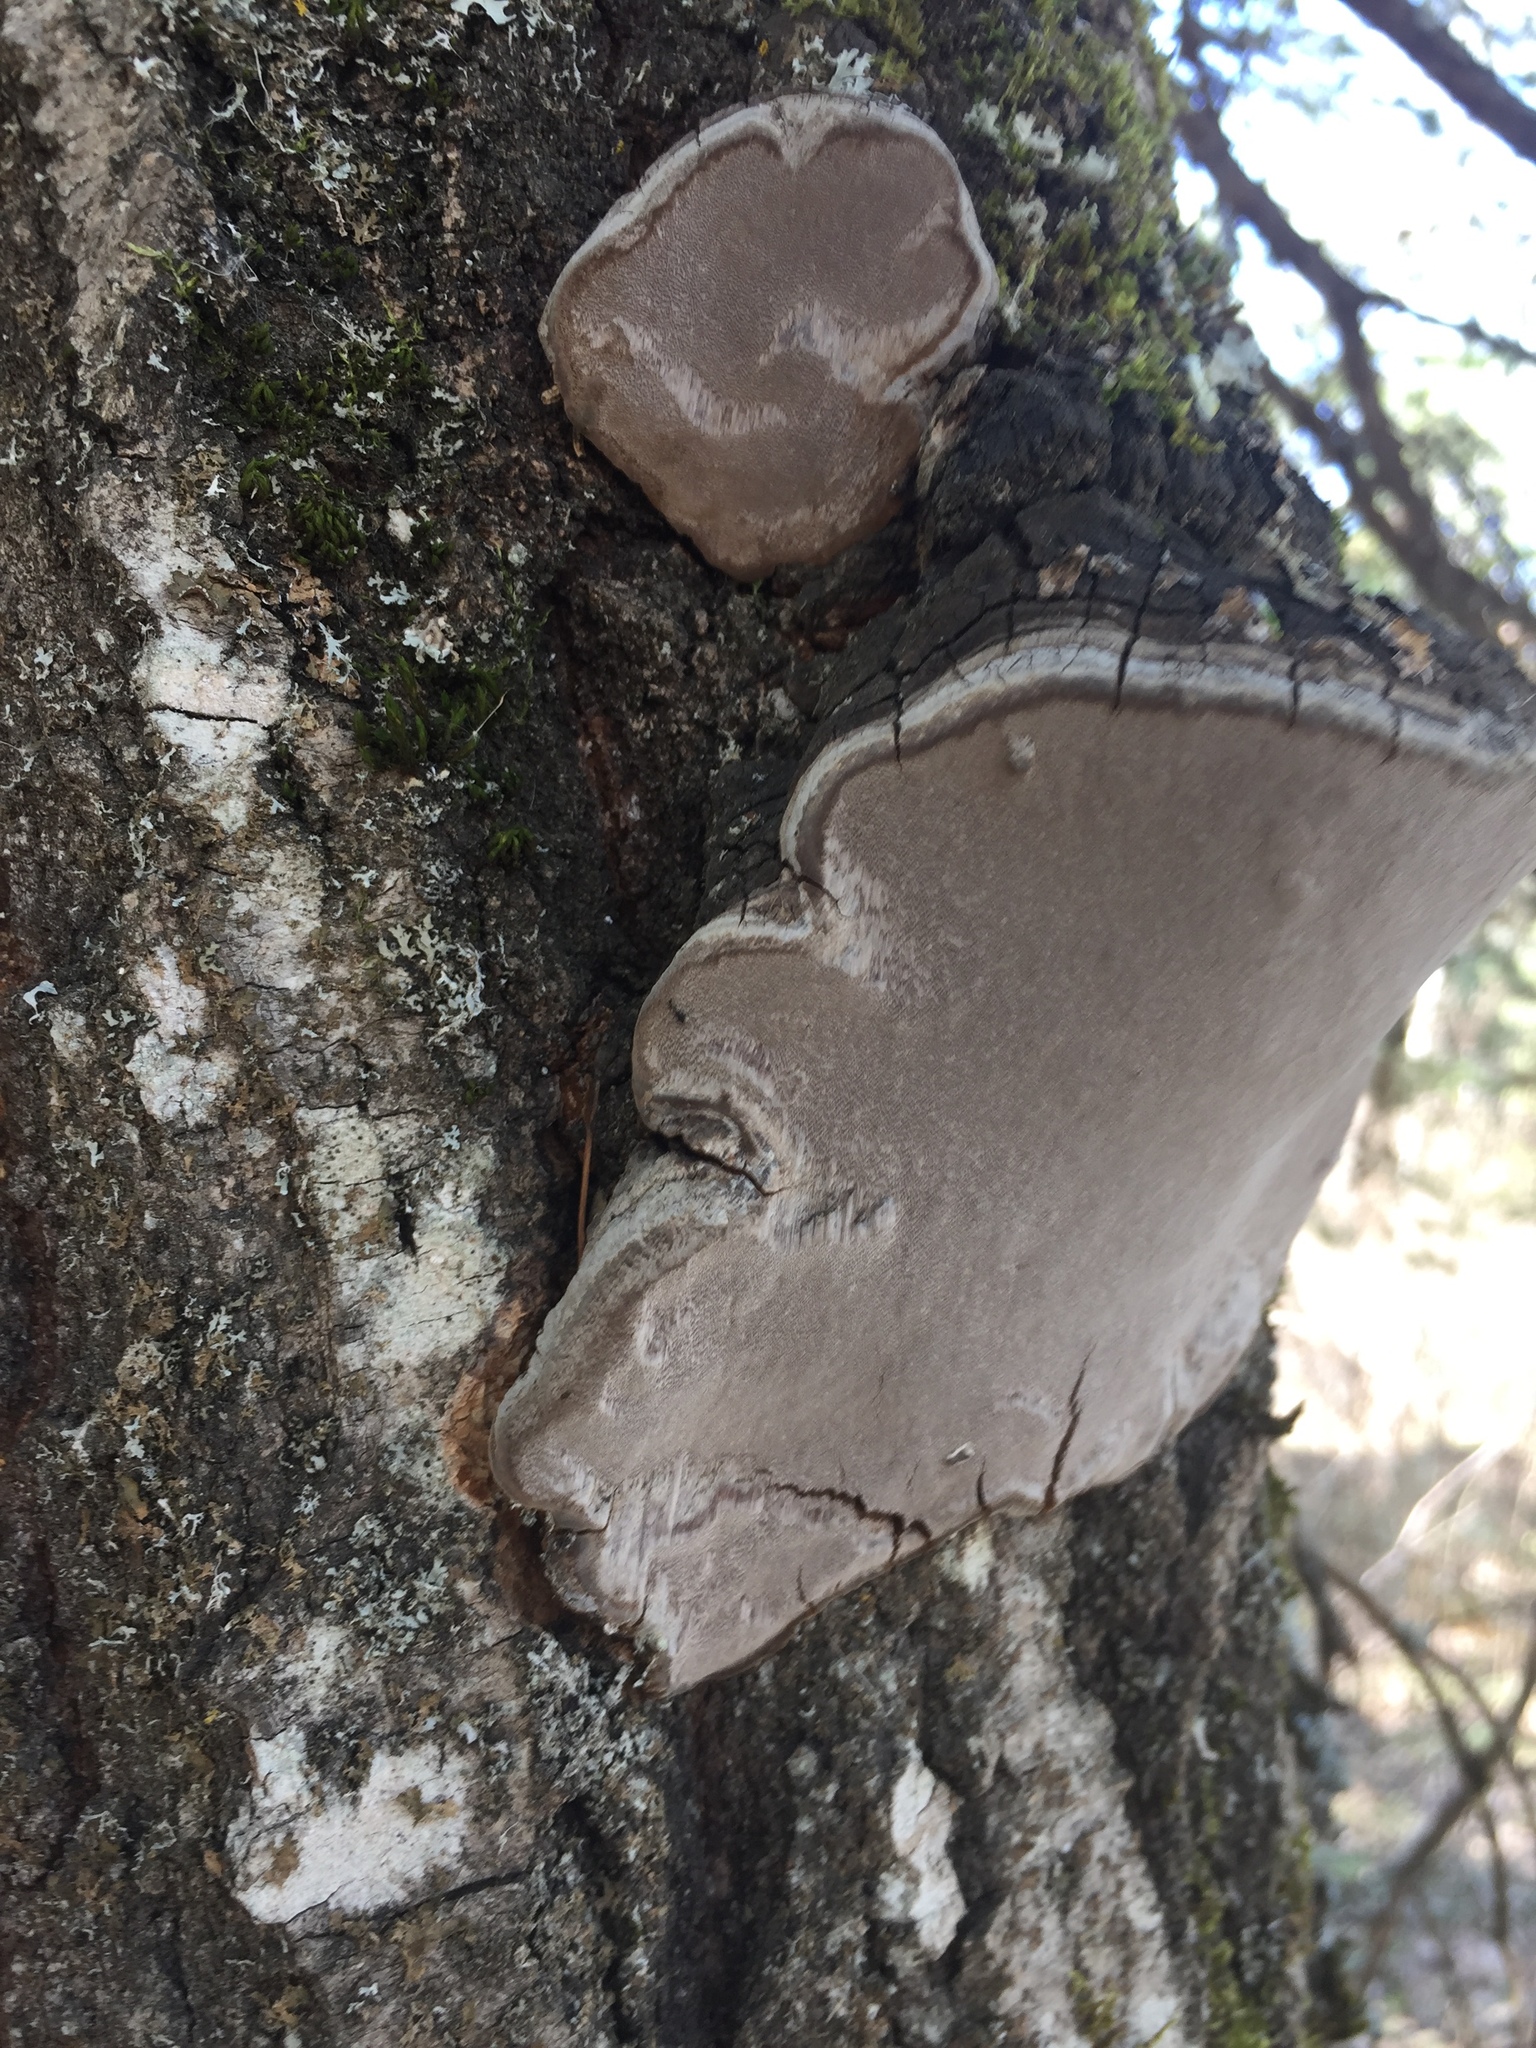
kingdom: Fungi
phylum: Basidiomycota
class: Agaricomycetes
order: Hymenochaetales
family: Hymenochaetaceae
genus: Phellinus
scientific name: Phellinus tremulae
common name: Aspen bracket
